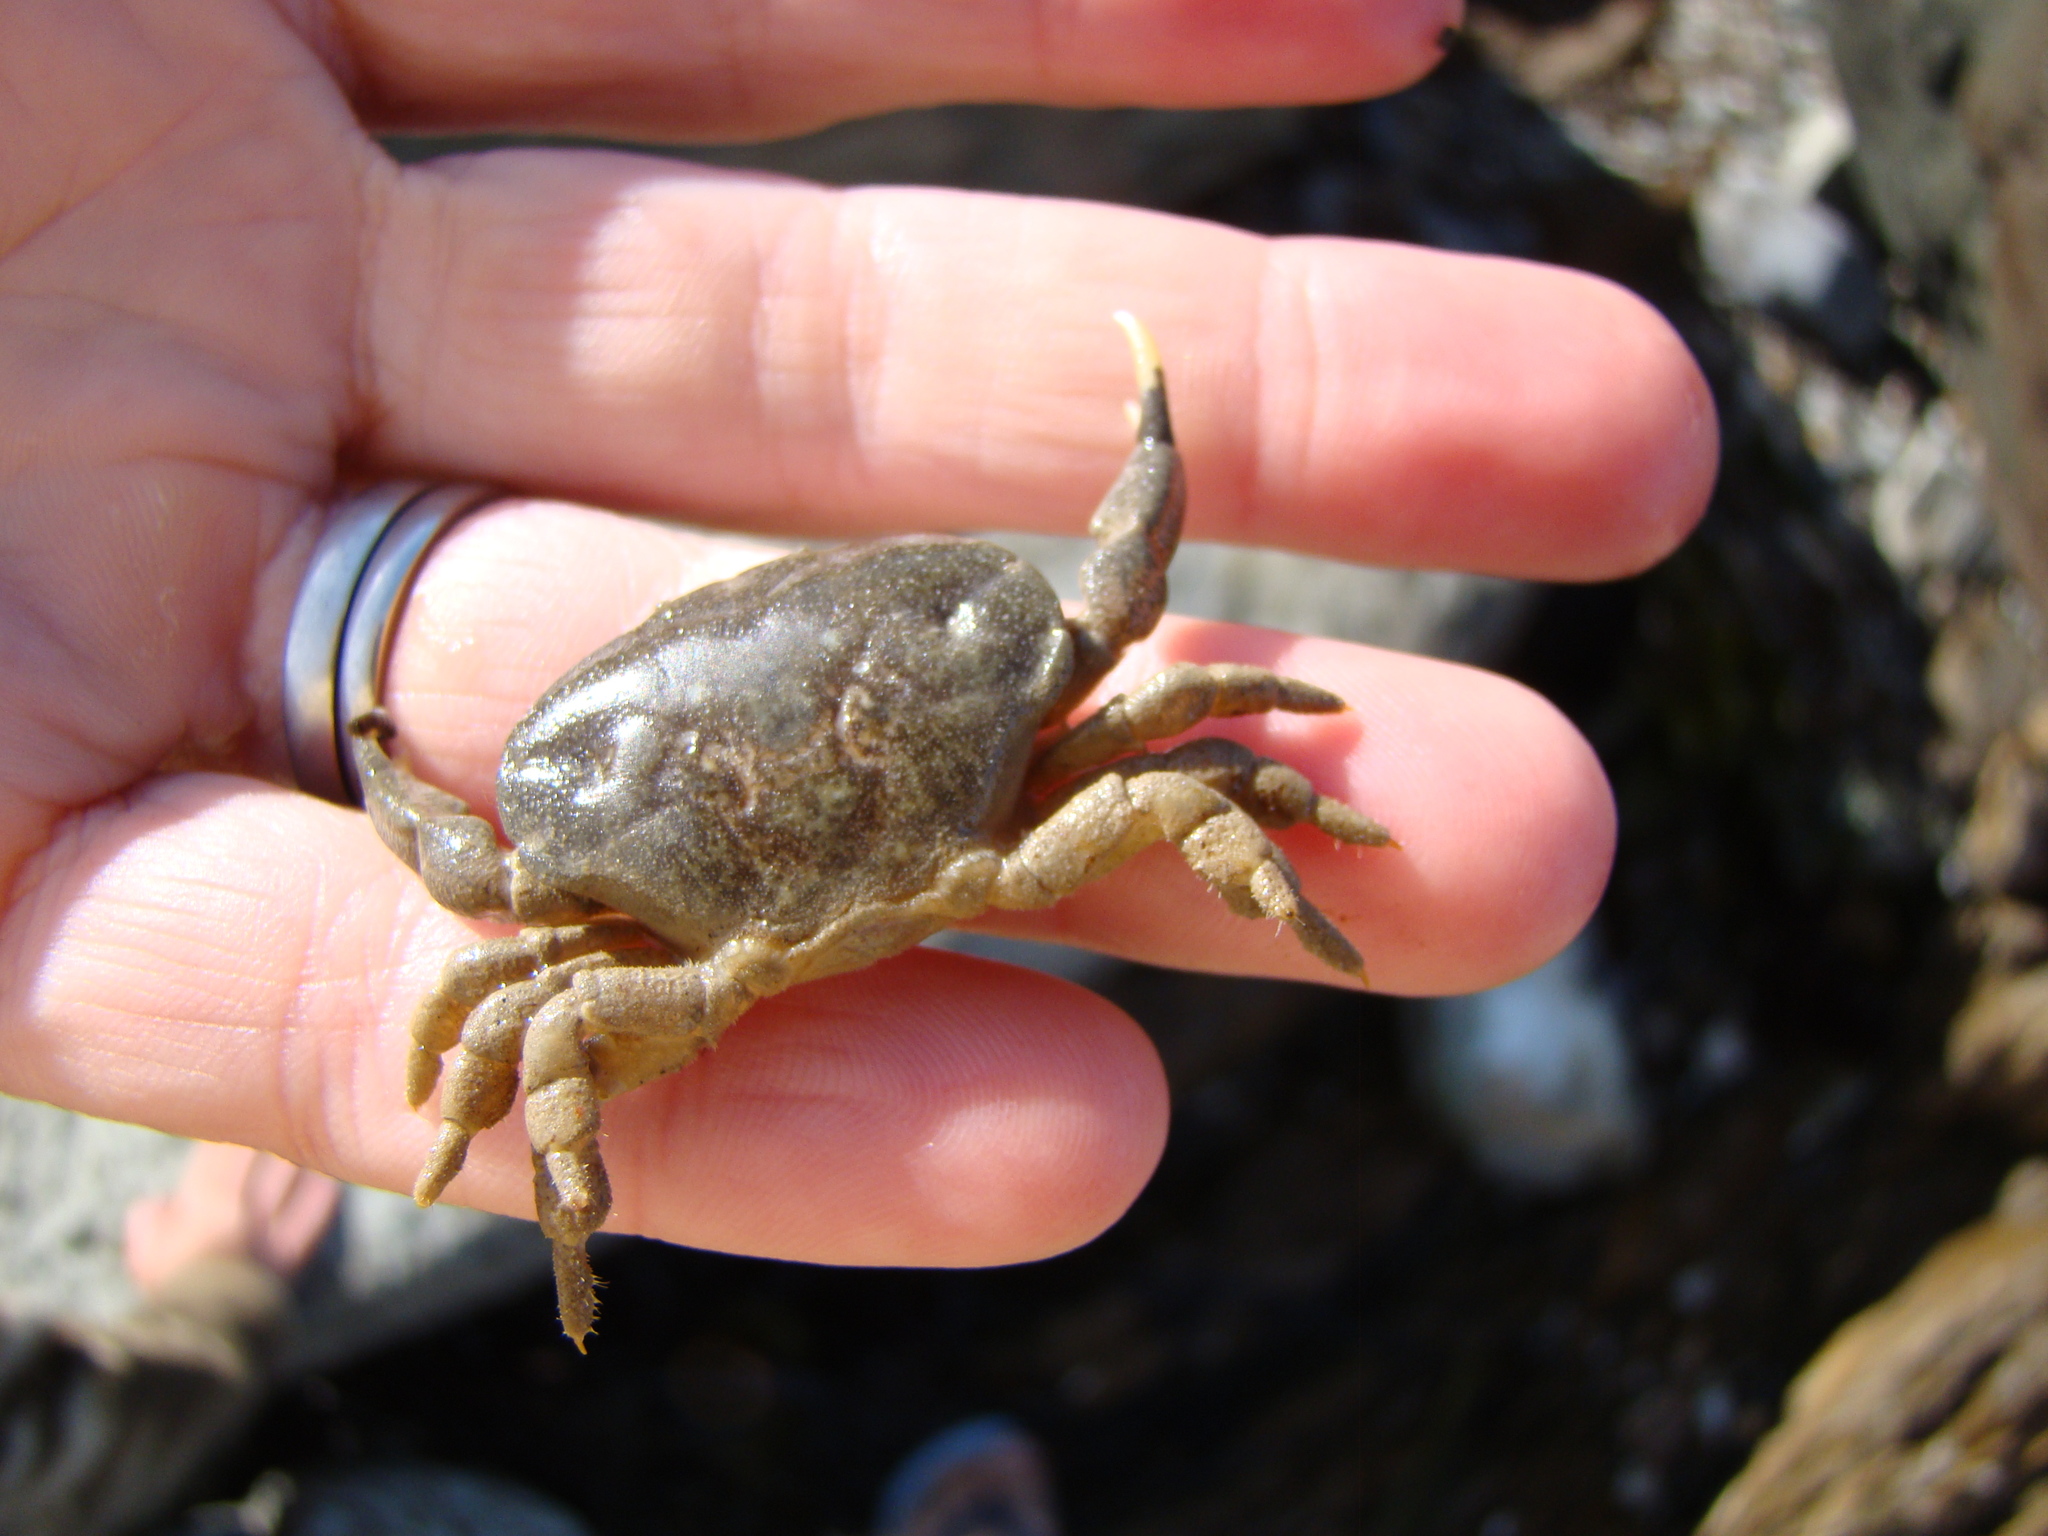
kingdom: Animalia
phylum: Arthropoda
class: Malacostraca
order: Decapoda
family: Heteroziidae
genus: Heterozius
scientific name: Heterozius rotundifrons
